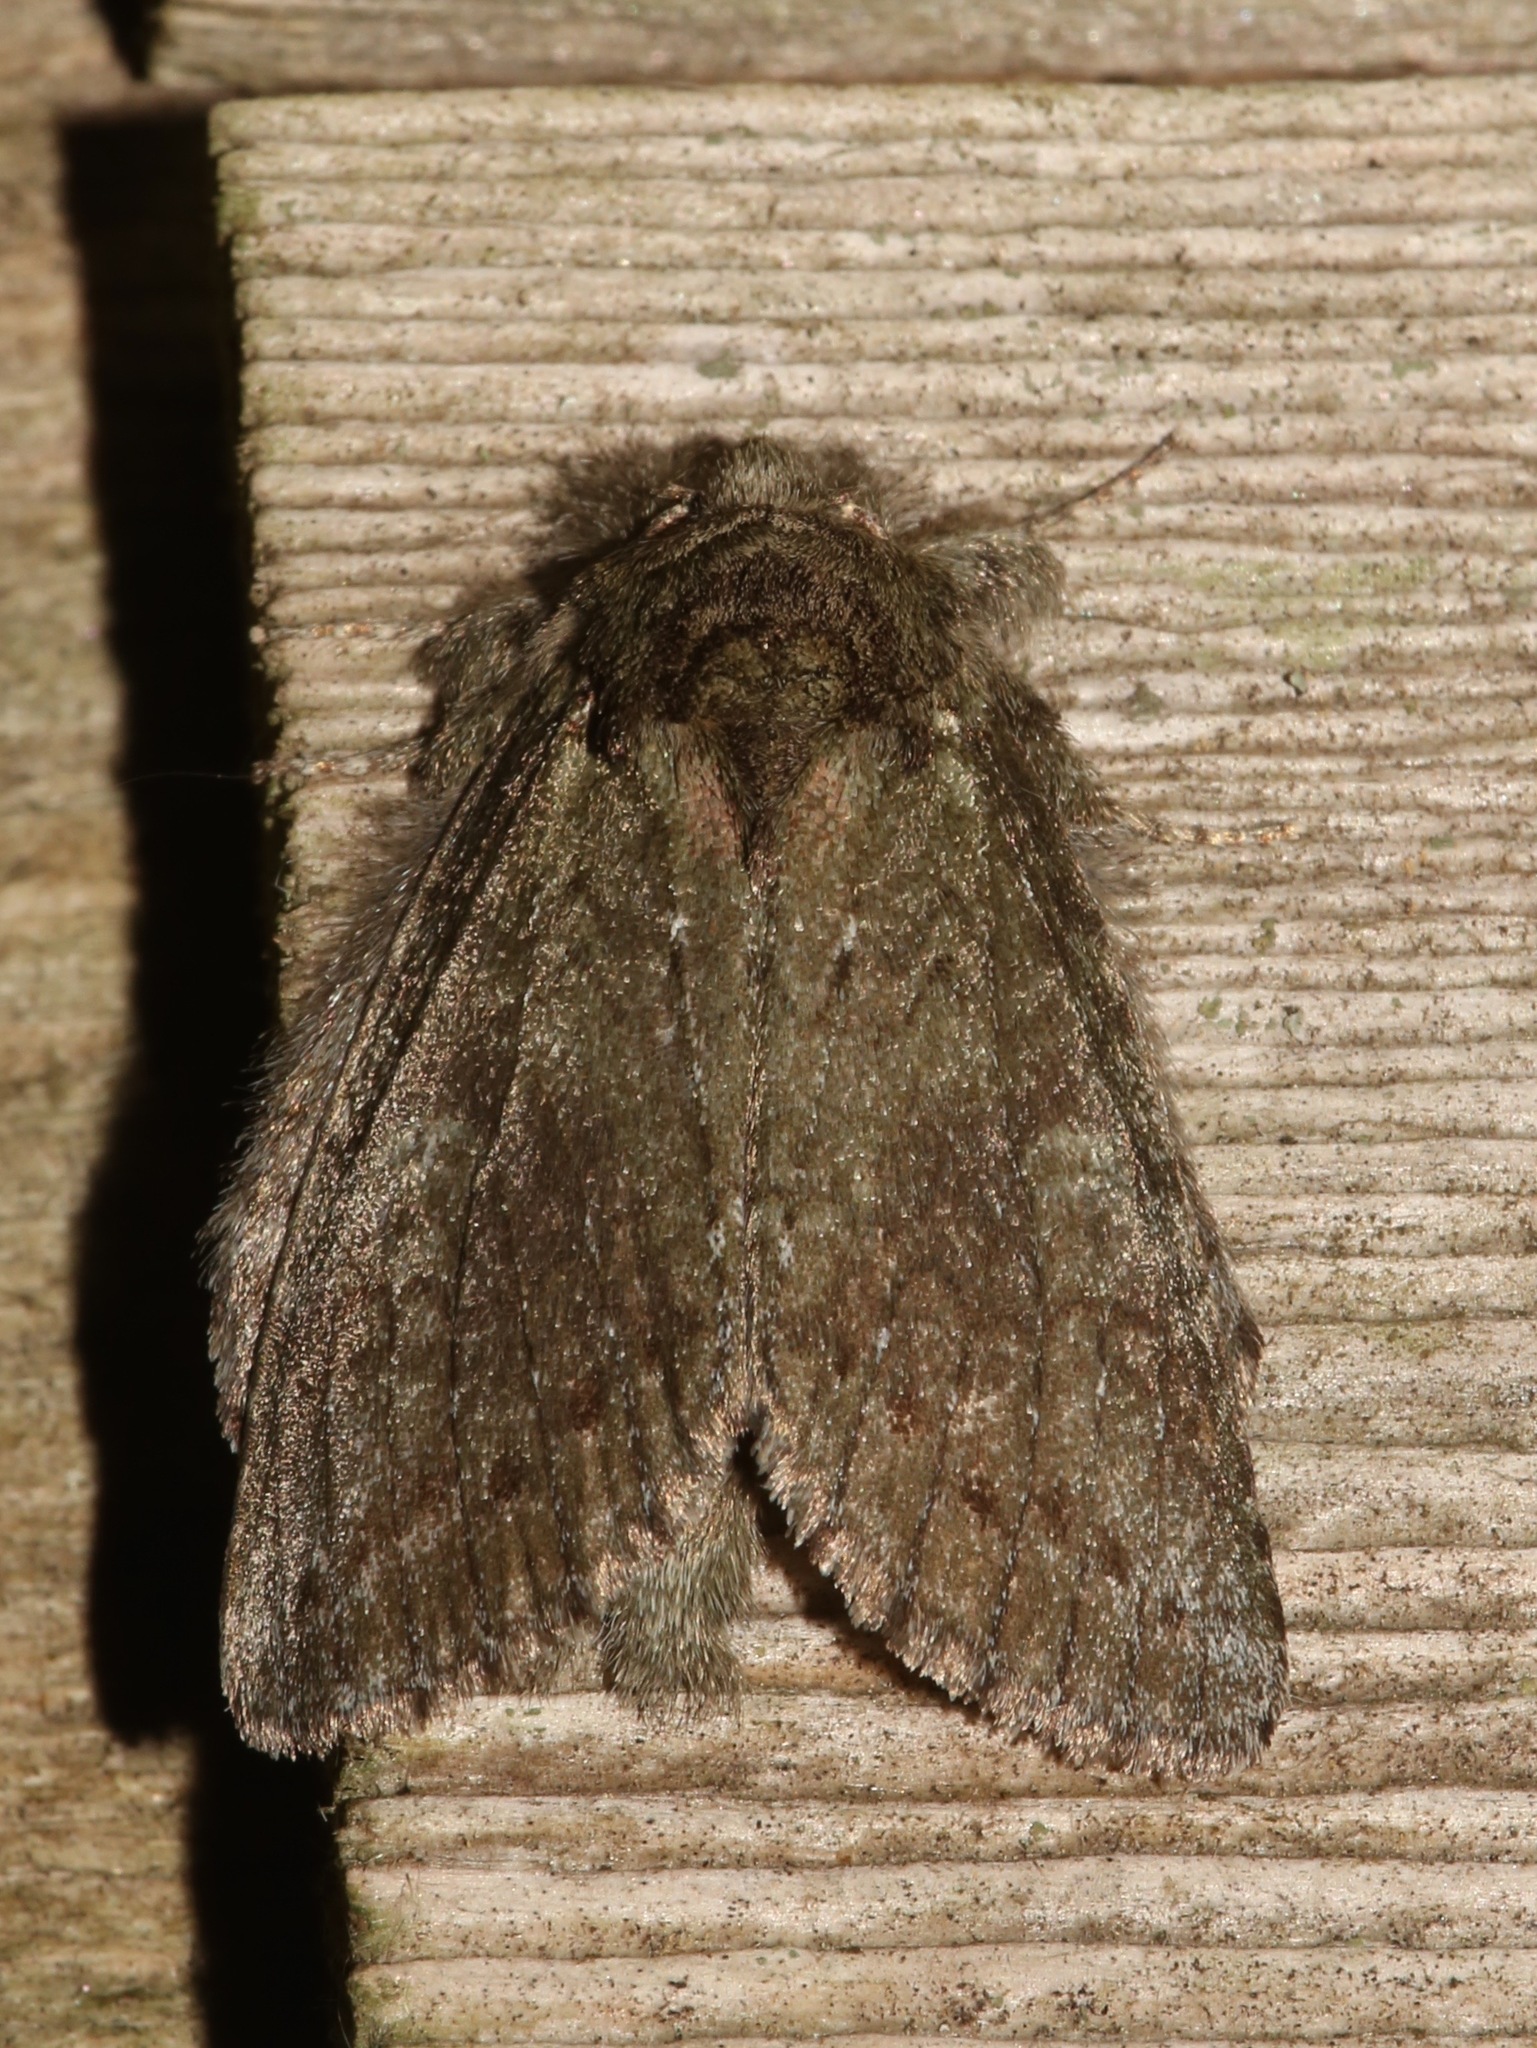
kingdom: Animalia
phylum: Arthropoda
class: Insecta
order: Lepidoptera
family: Notodontidae
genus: Disphragis
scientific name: Disphragis Cecrita guttivitta
